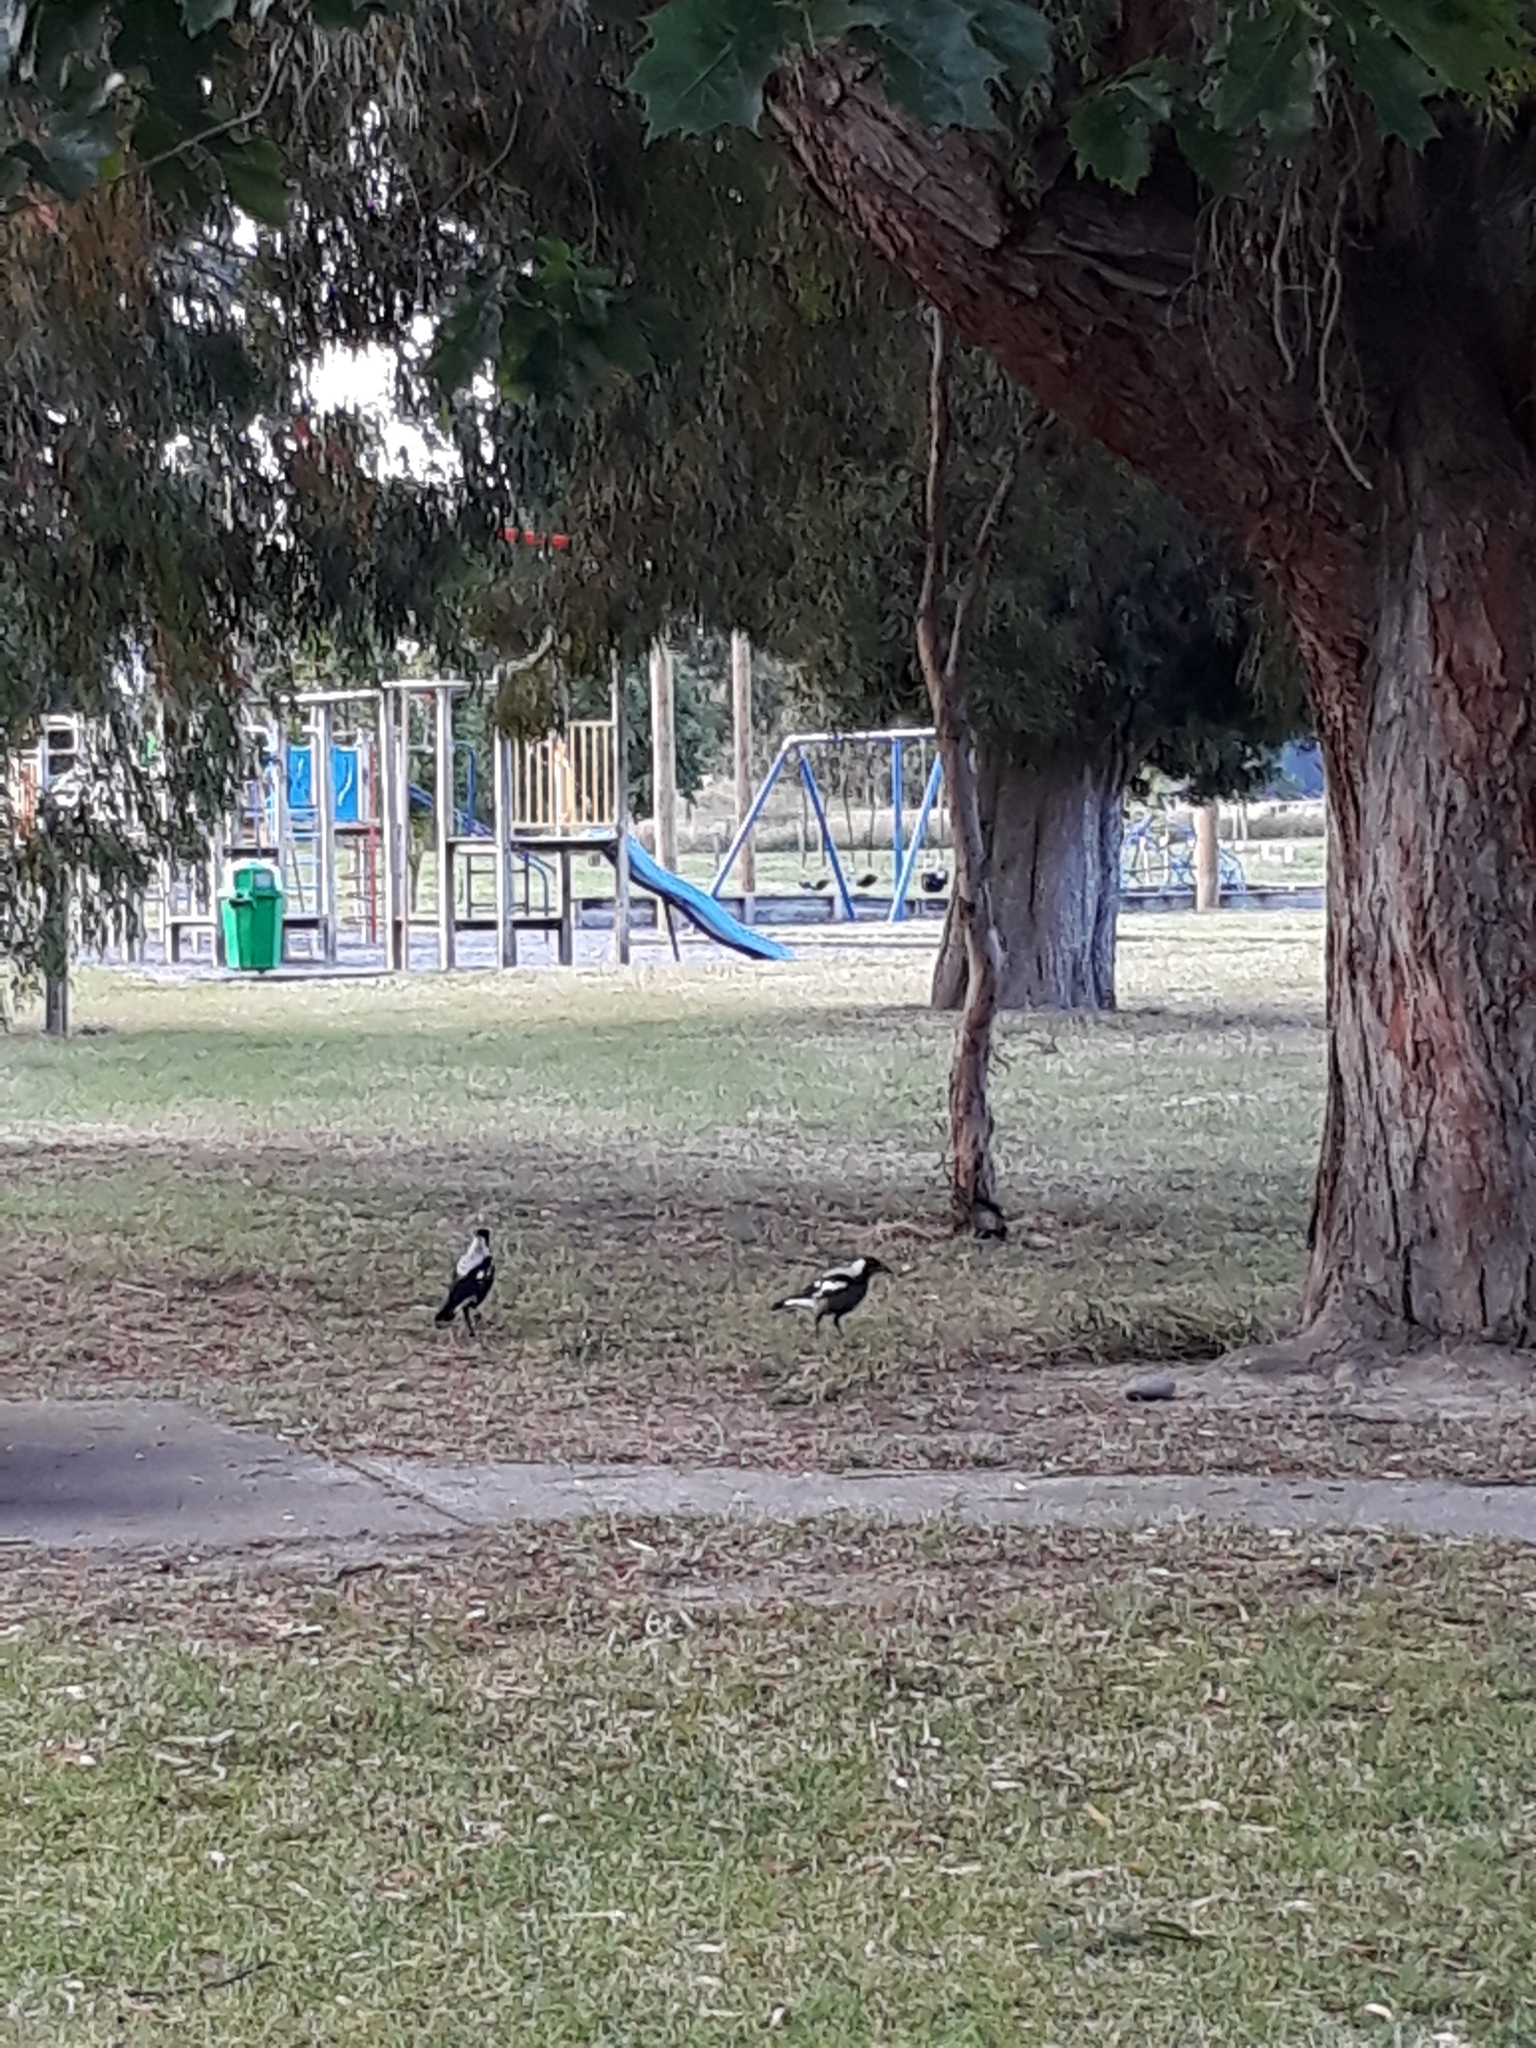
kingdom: Animalia
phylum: Chordata
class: Aves
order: Passeriformes
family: Cracticidae
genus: Gymnorhina
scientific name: Gymnorhina tibicen
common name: Australian magpie
